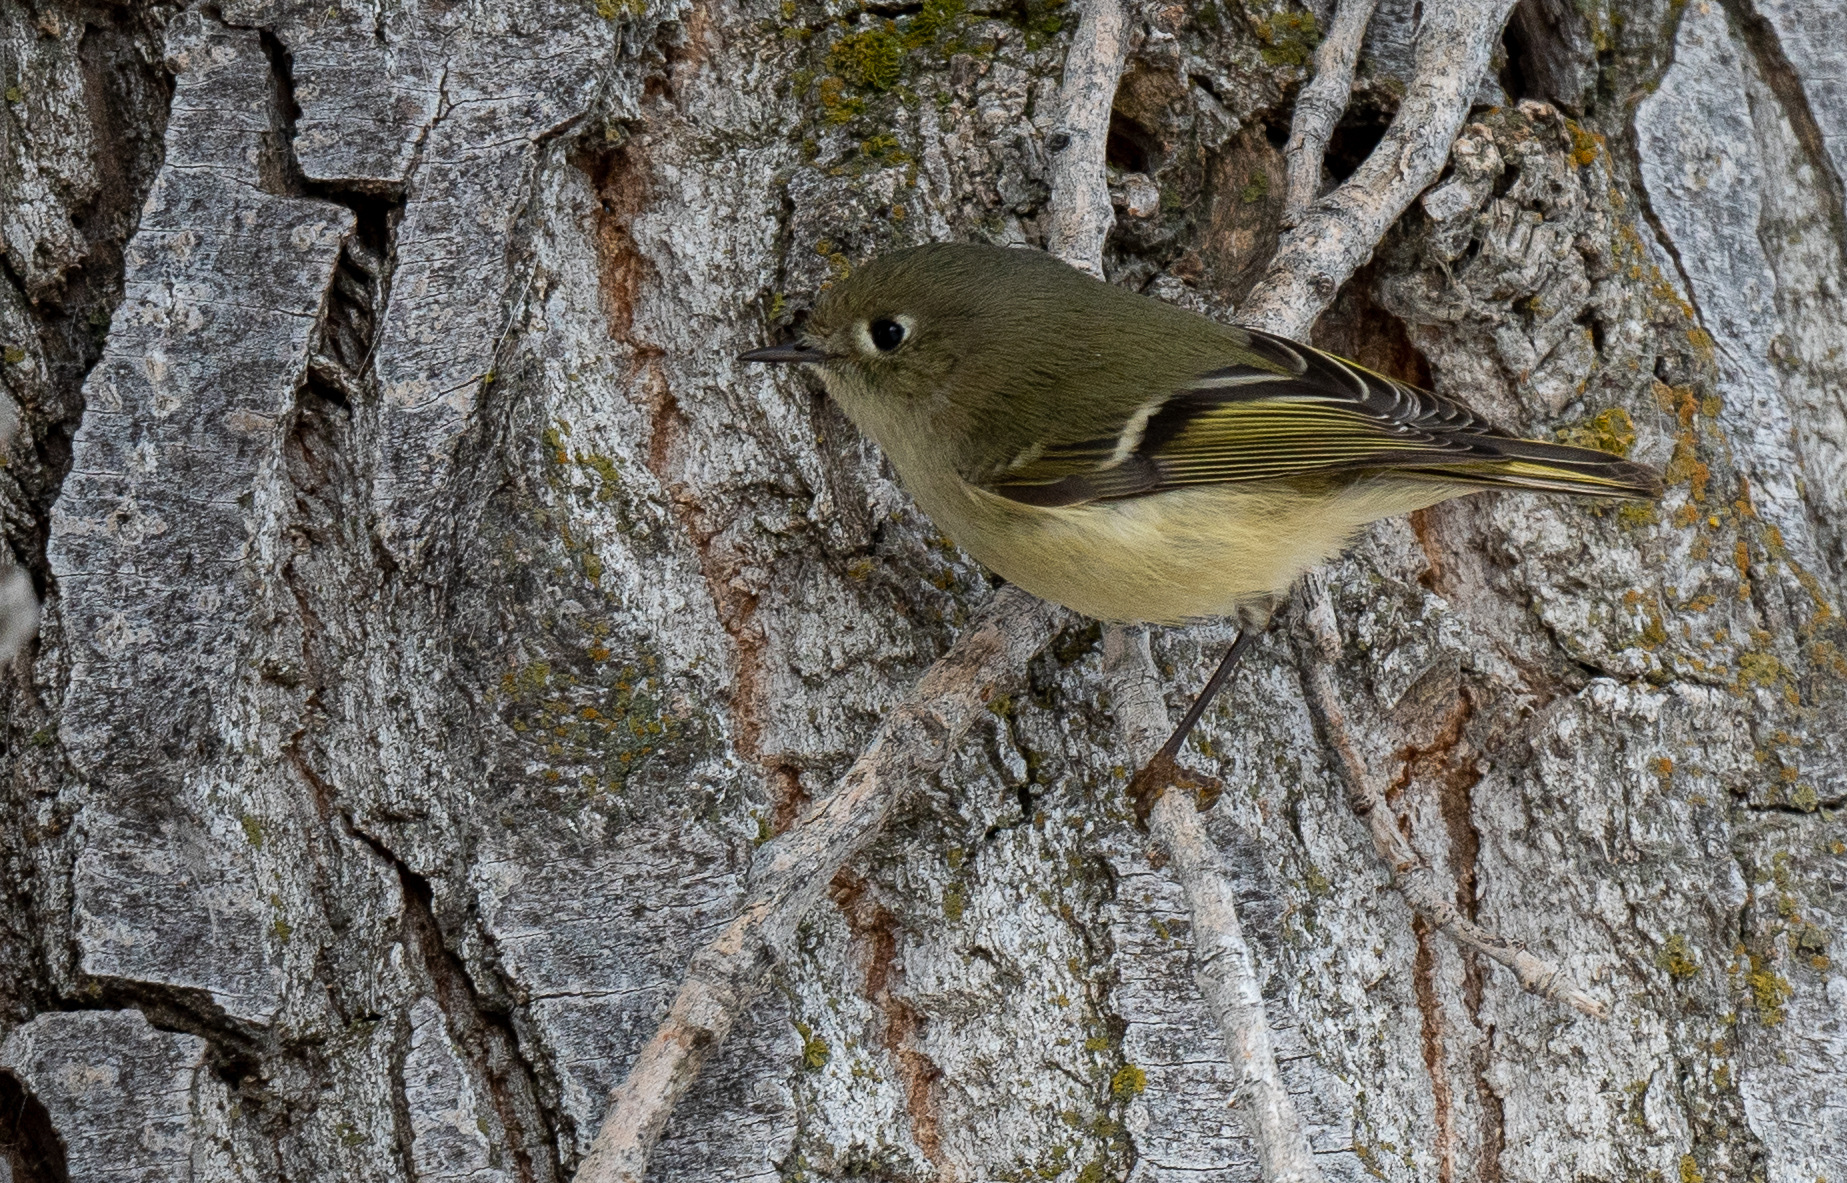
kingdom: Animalia
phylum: Chordata
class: Aves
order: Passeriformes
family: Regulidae
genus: Regulus
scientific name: Regulus calendula
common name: Ruby-crowned kinglet
